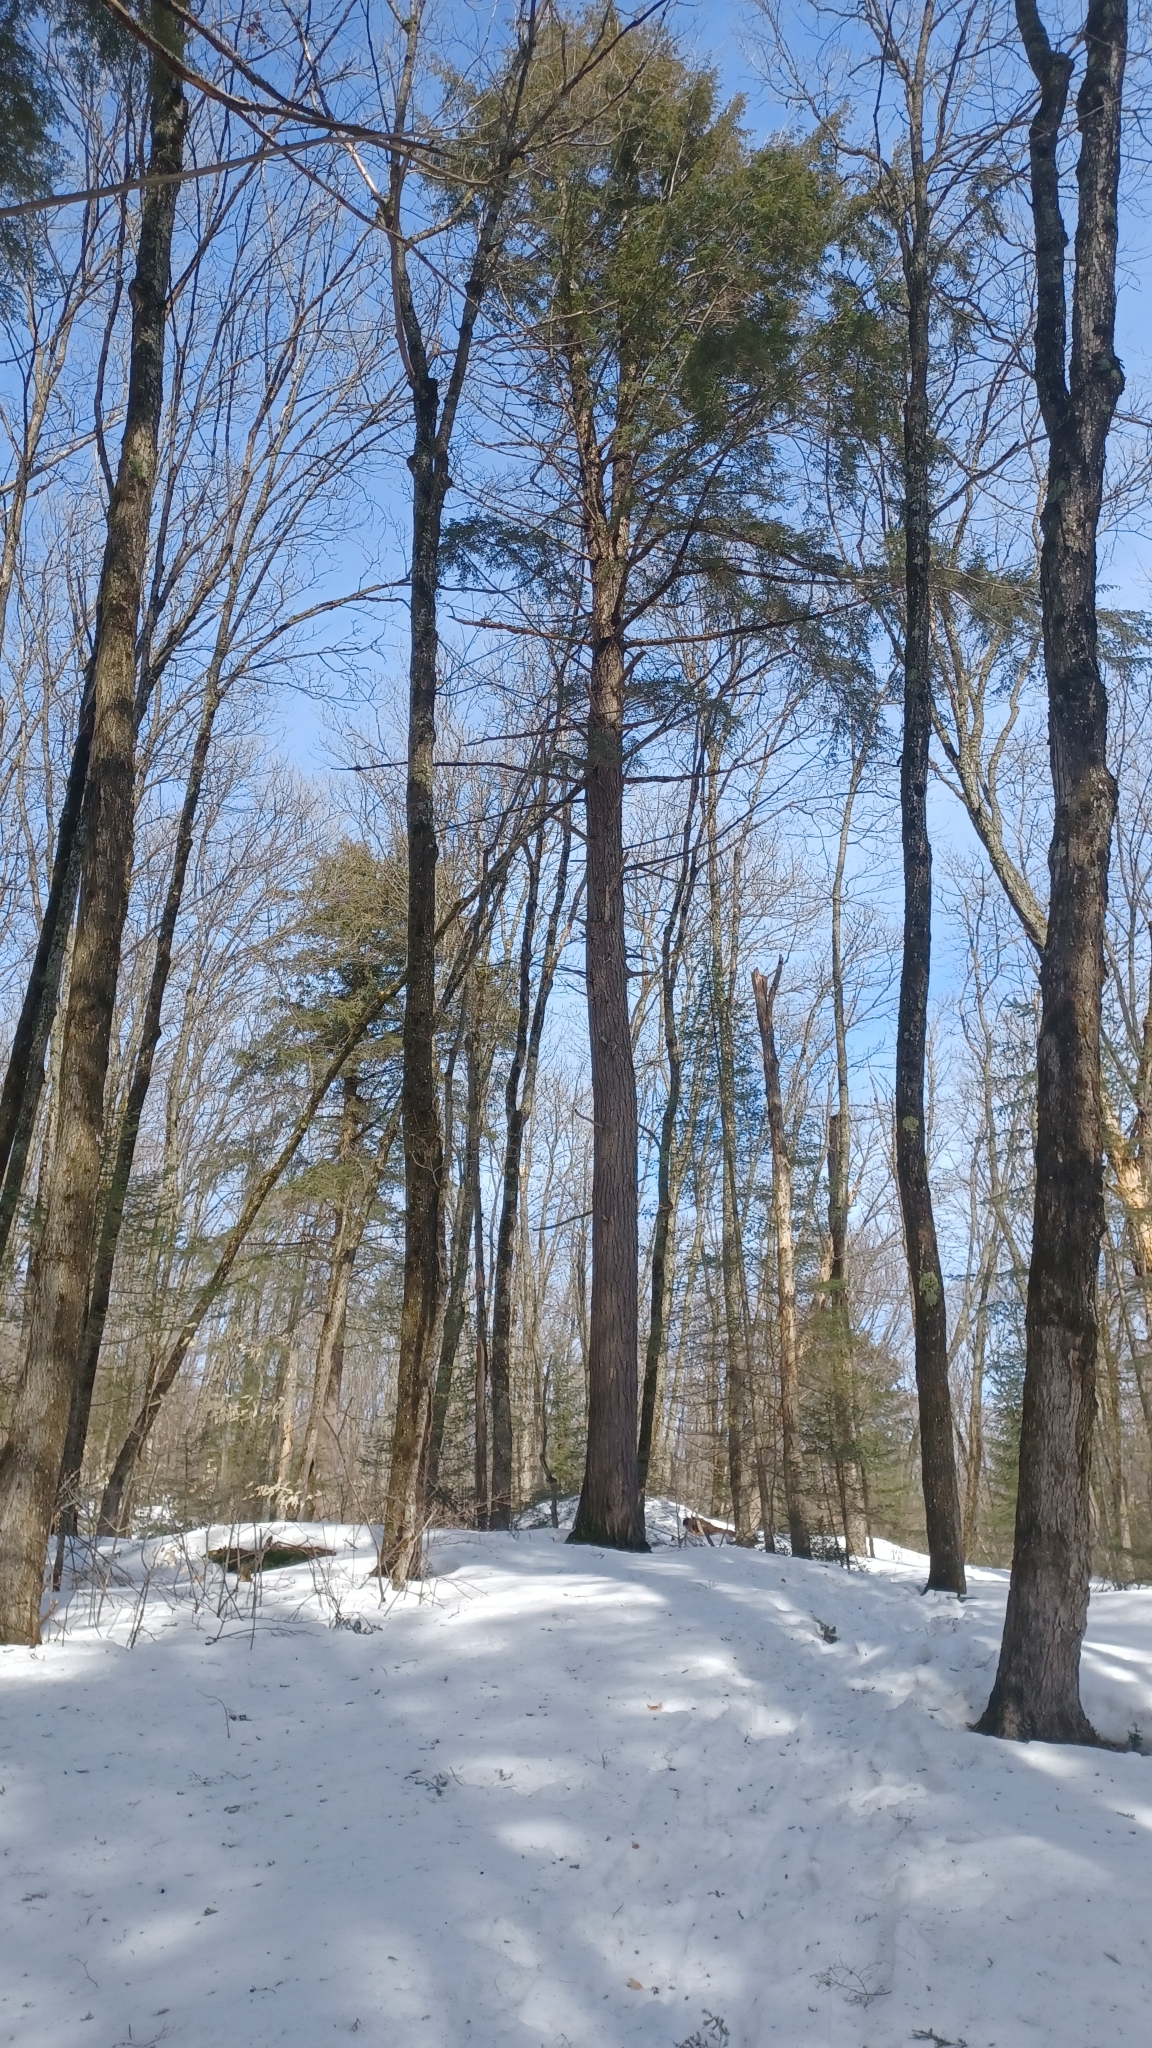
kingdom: Plantae
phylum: Tracheophyta
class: Pinopsida
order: Pinales
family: Pinaceae
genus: Tsuga
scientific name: Tsuga canadensis
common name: Eastern hemlock
